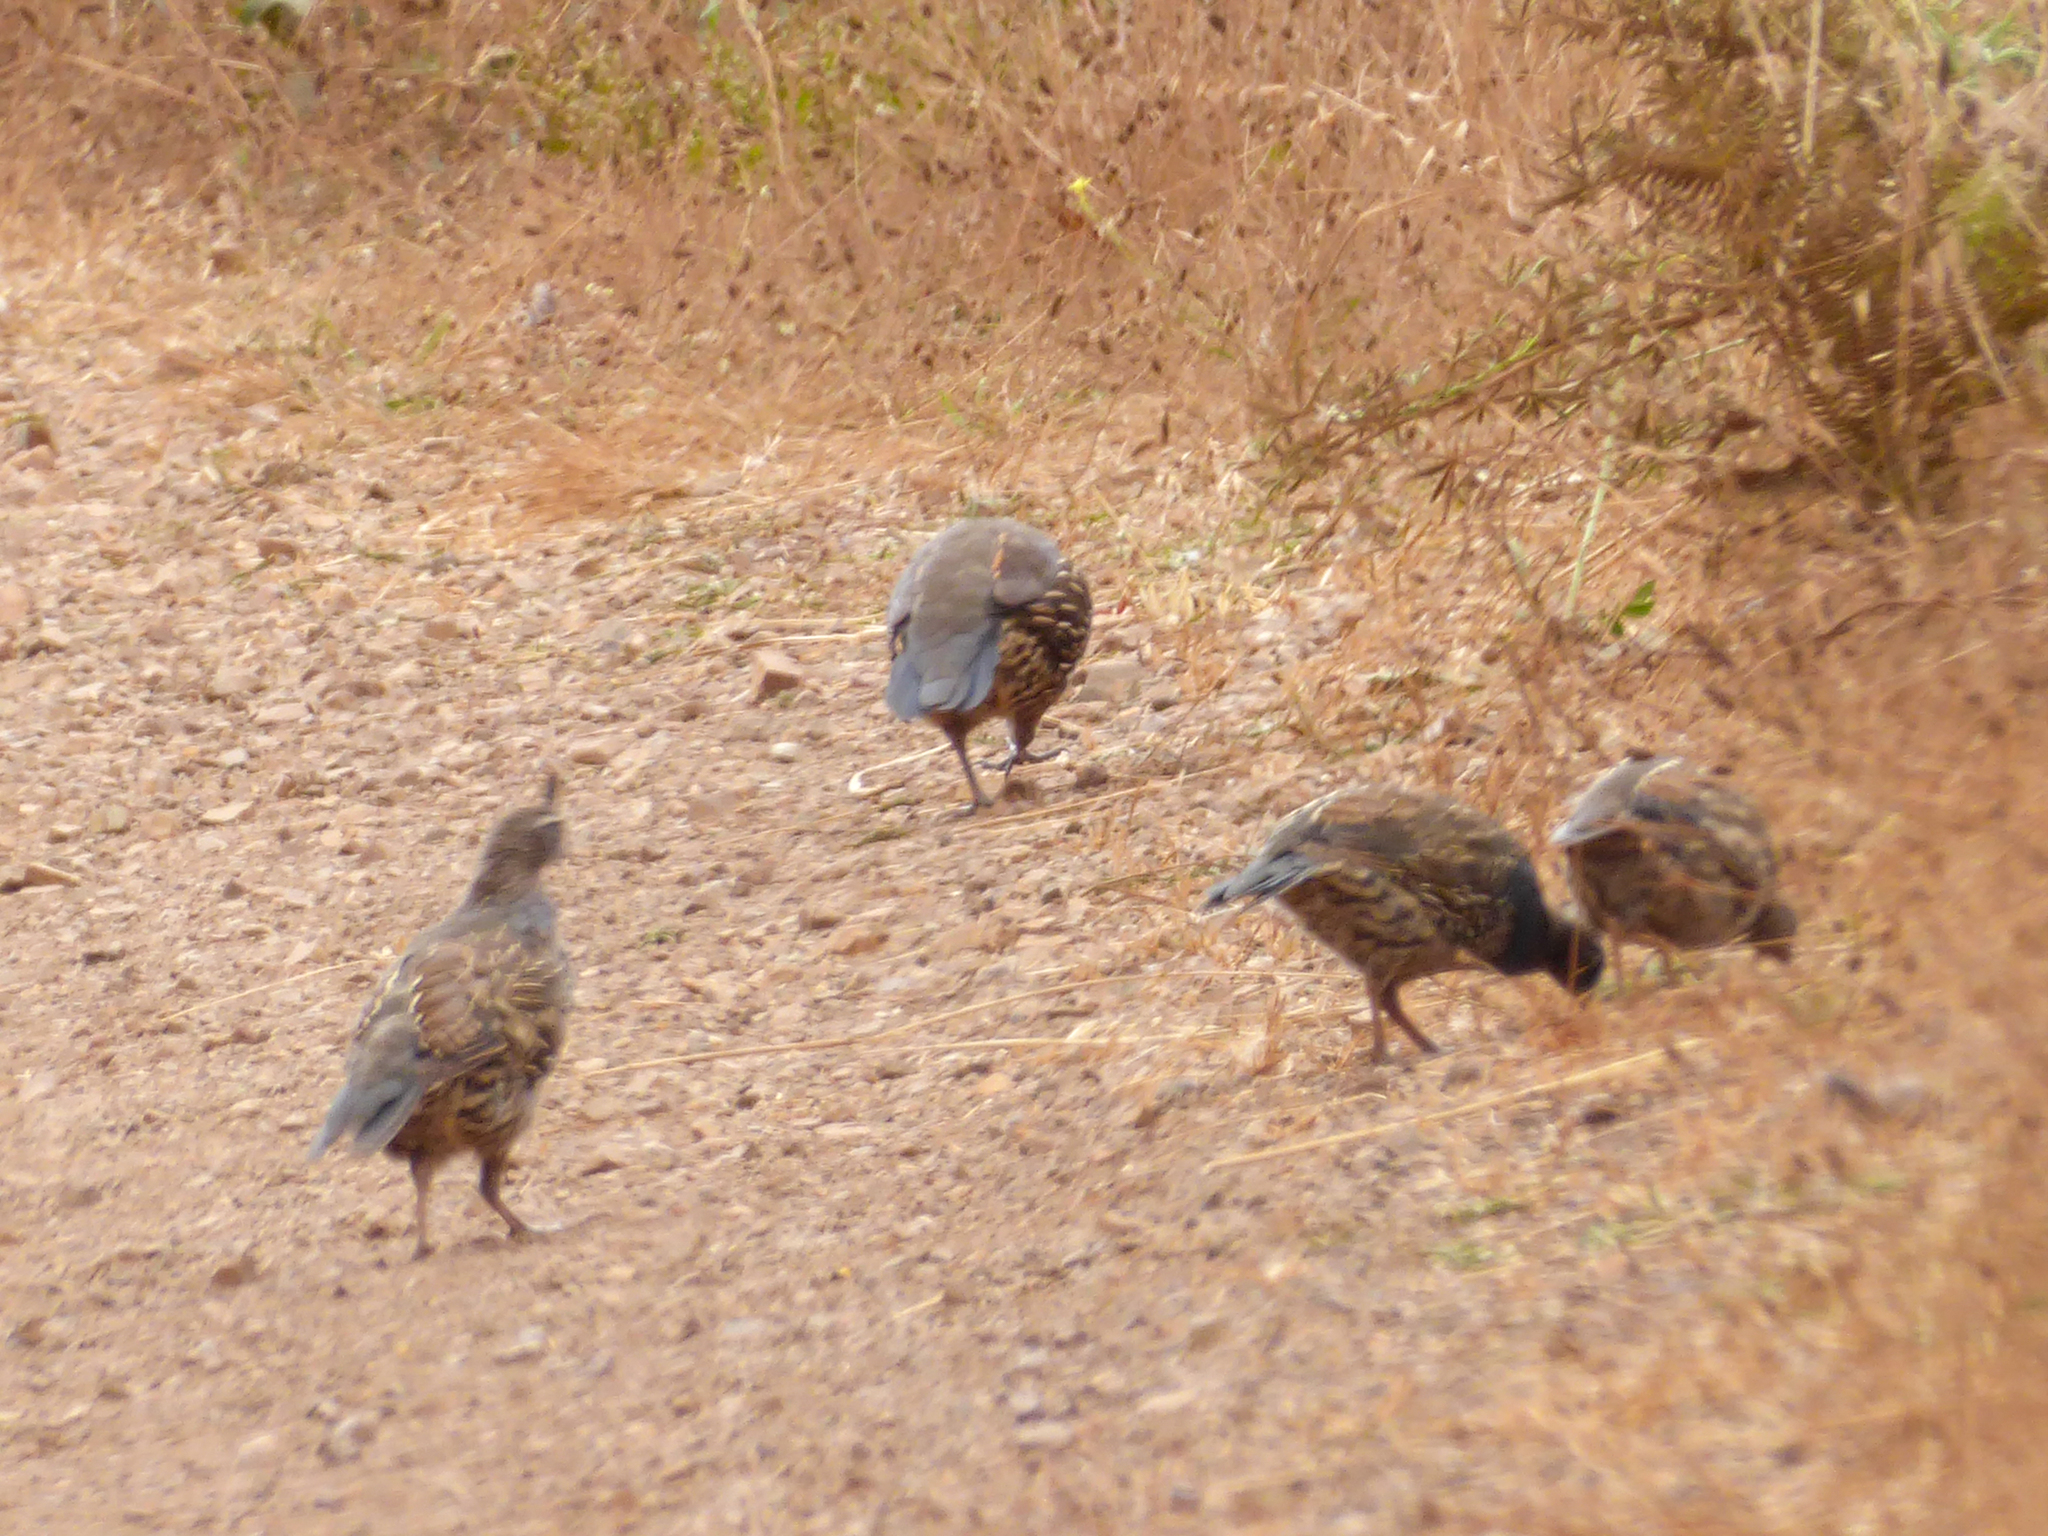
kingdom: Animalia
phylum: Chordata
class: Aves
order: Galliformes
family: Odontophoridae
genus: Callipepla
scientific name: Callipepla californica
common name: California quail
